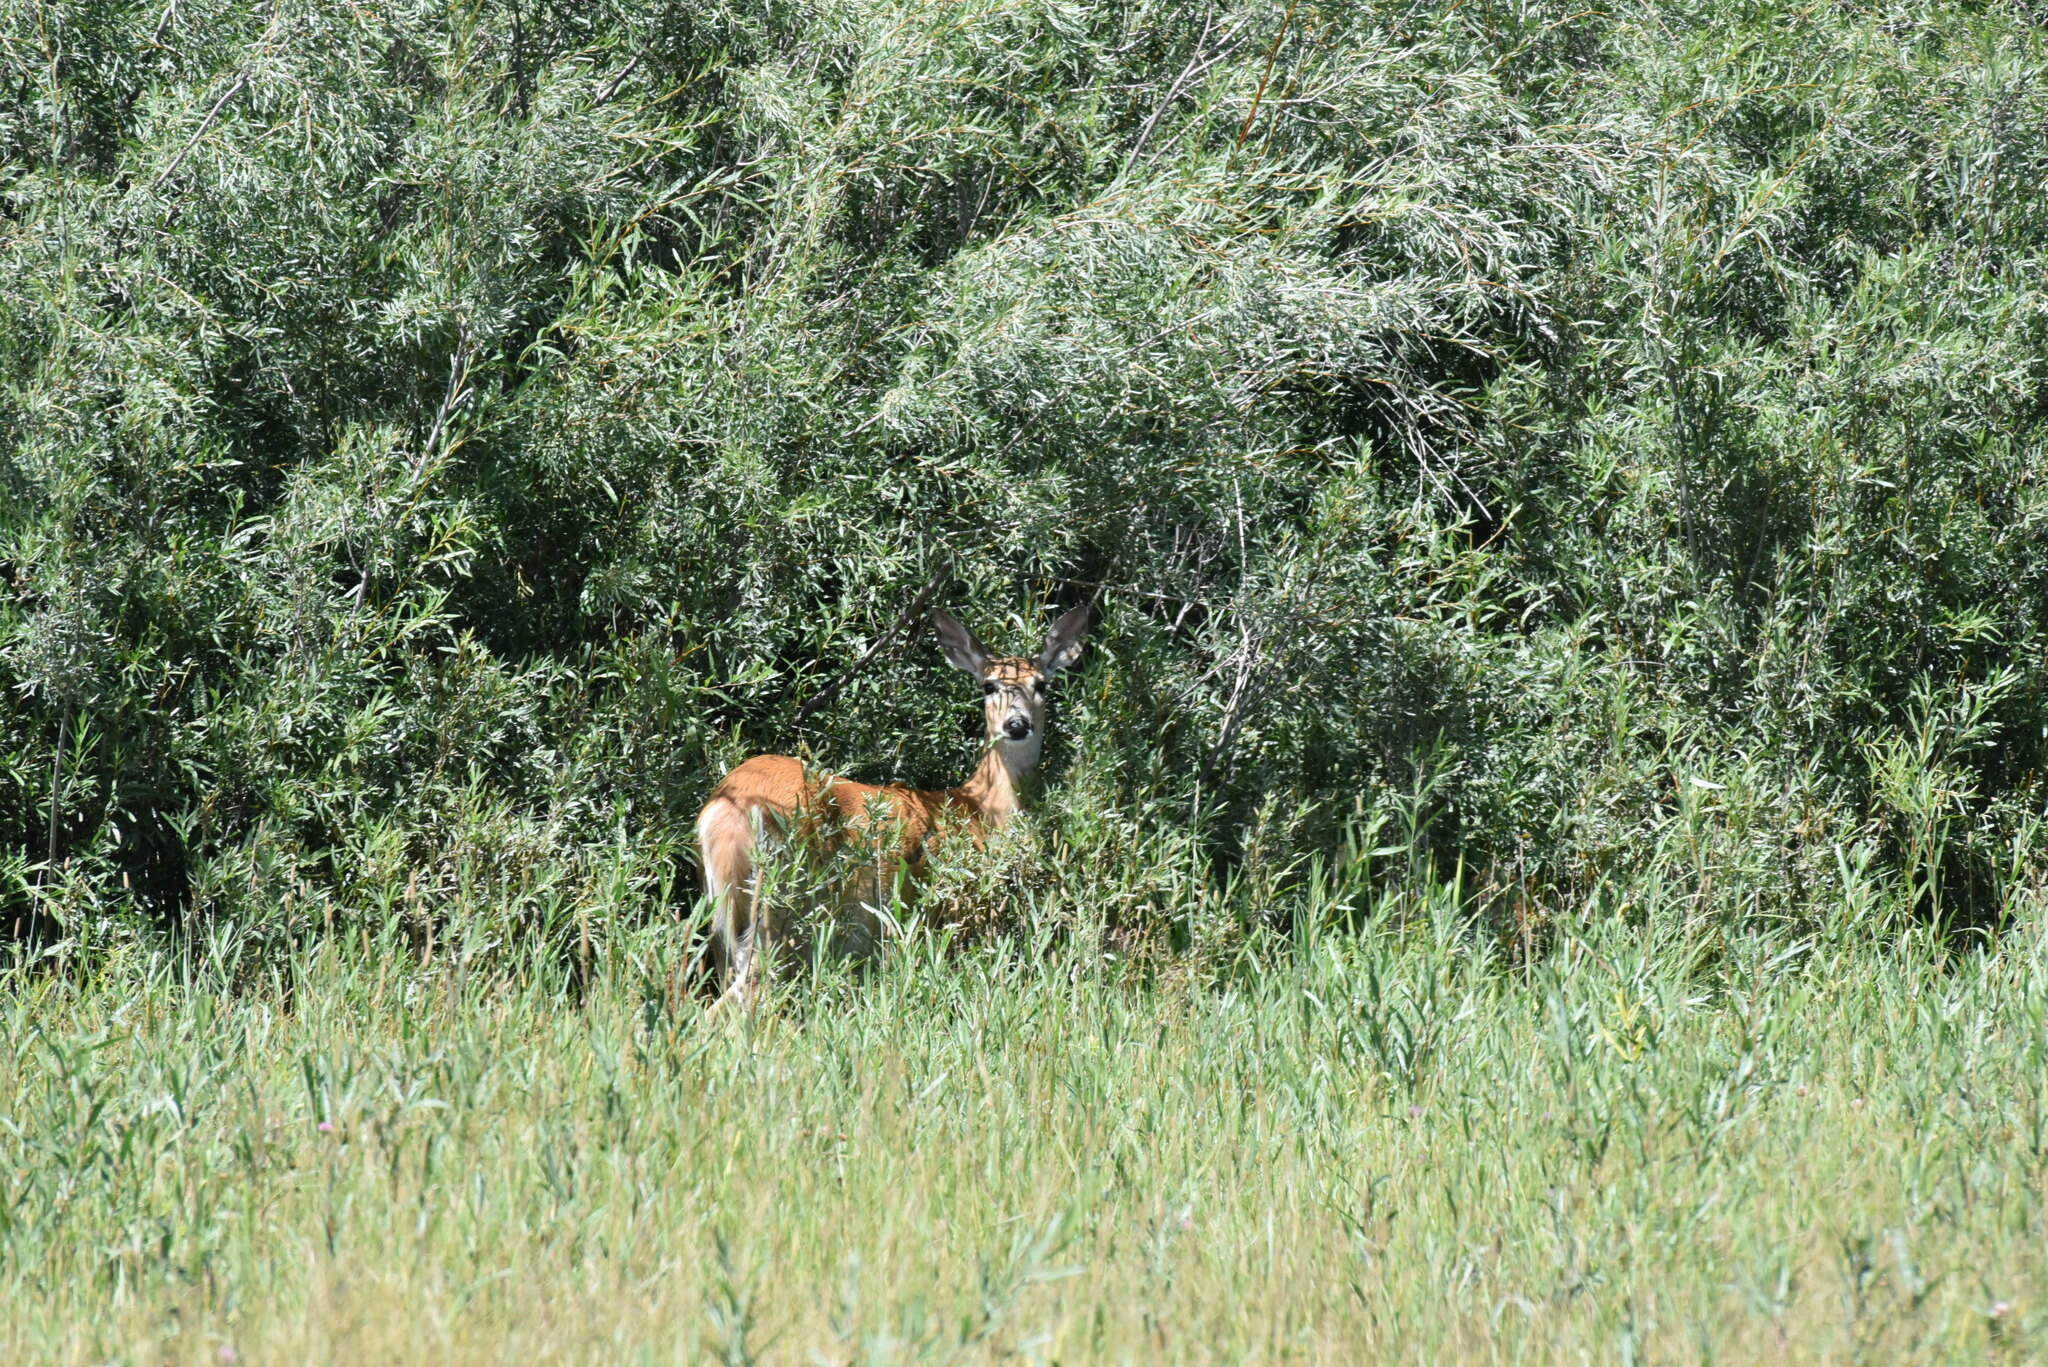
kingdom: Animalia
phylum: Chordata
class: Mammalia
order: Artiodactyla
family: Cervidae
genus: Odocoileus
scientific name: Odocoileus virginianus
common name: White-tailed deer
